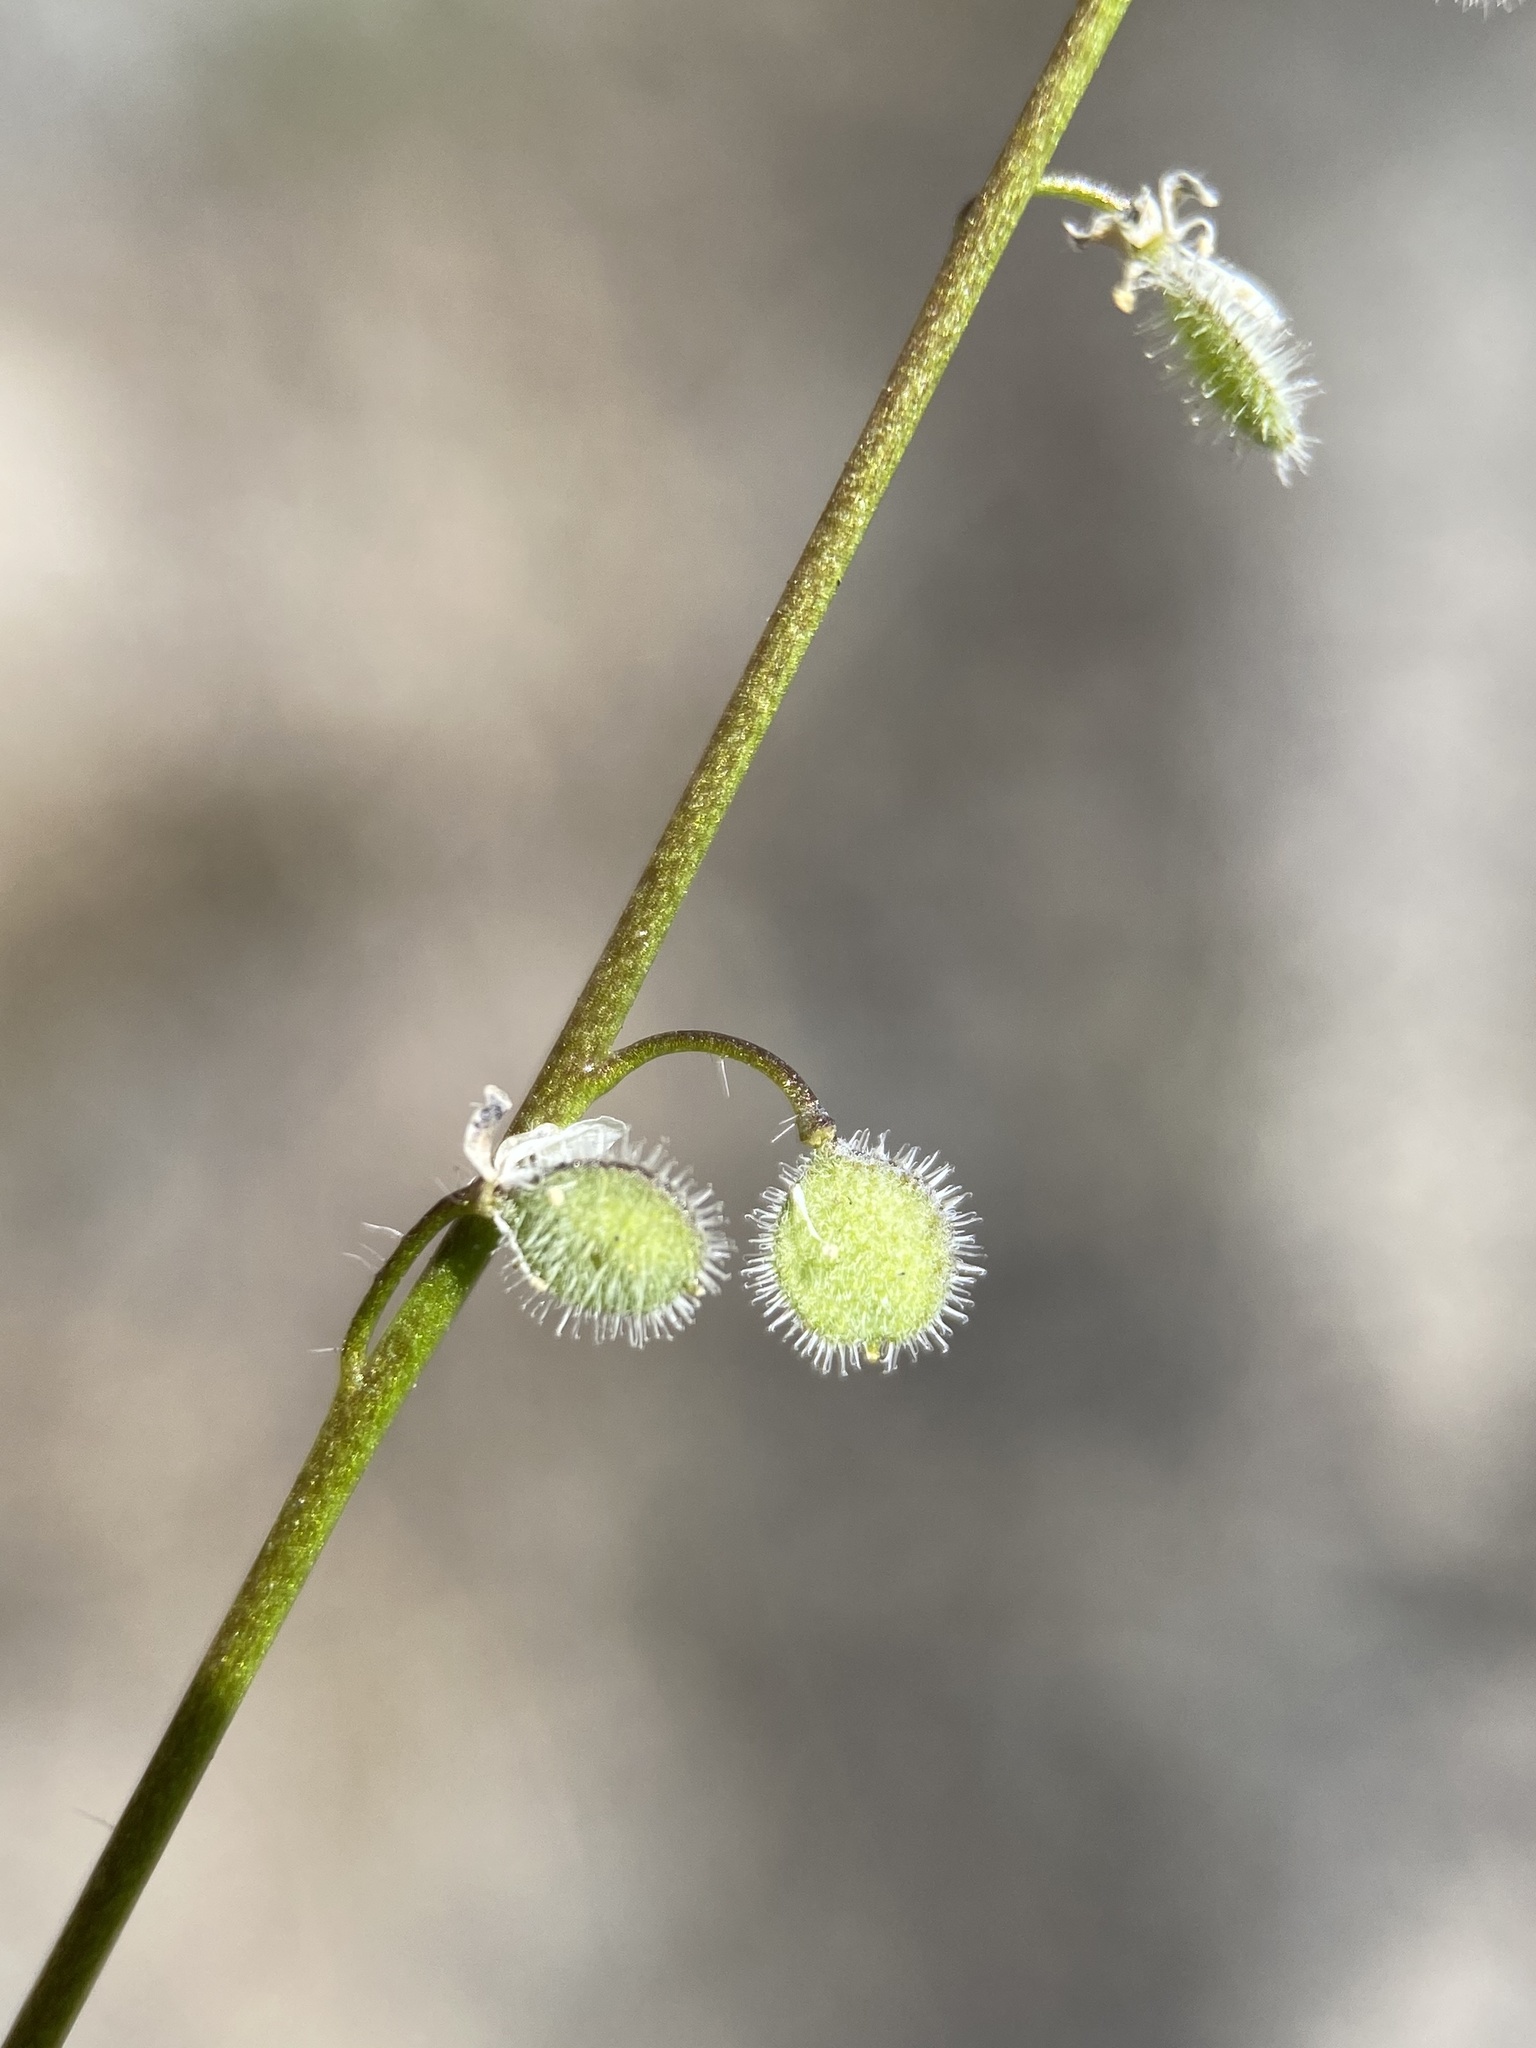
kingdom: Plantae
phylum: Tracheophyta
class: Magnoliopsida
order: Brassicales
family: Brassicaceae
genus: Athysanus
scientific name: Athysanus pusillus
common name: Common sandweed
